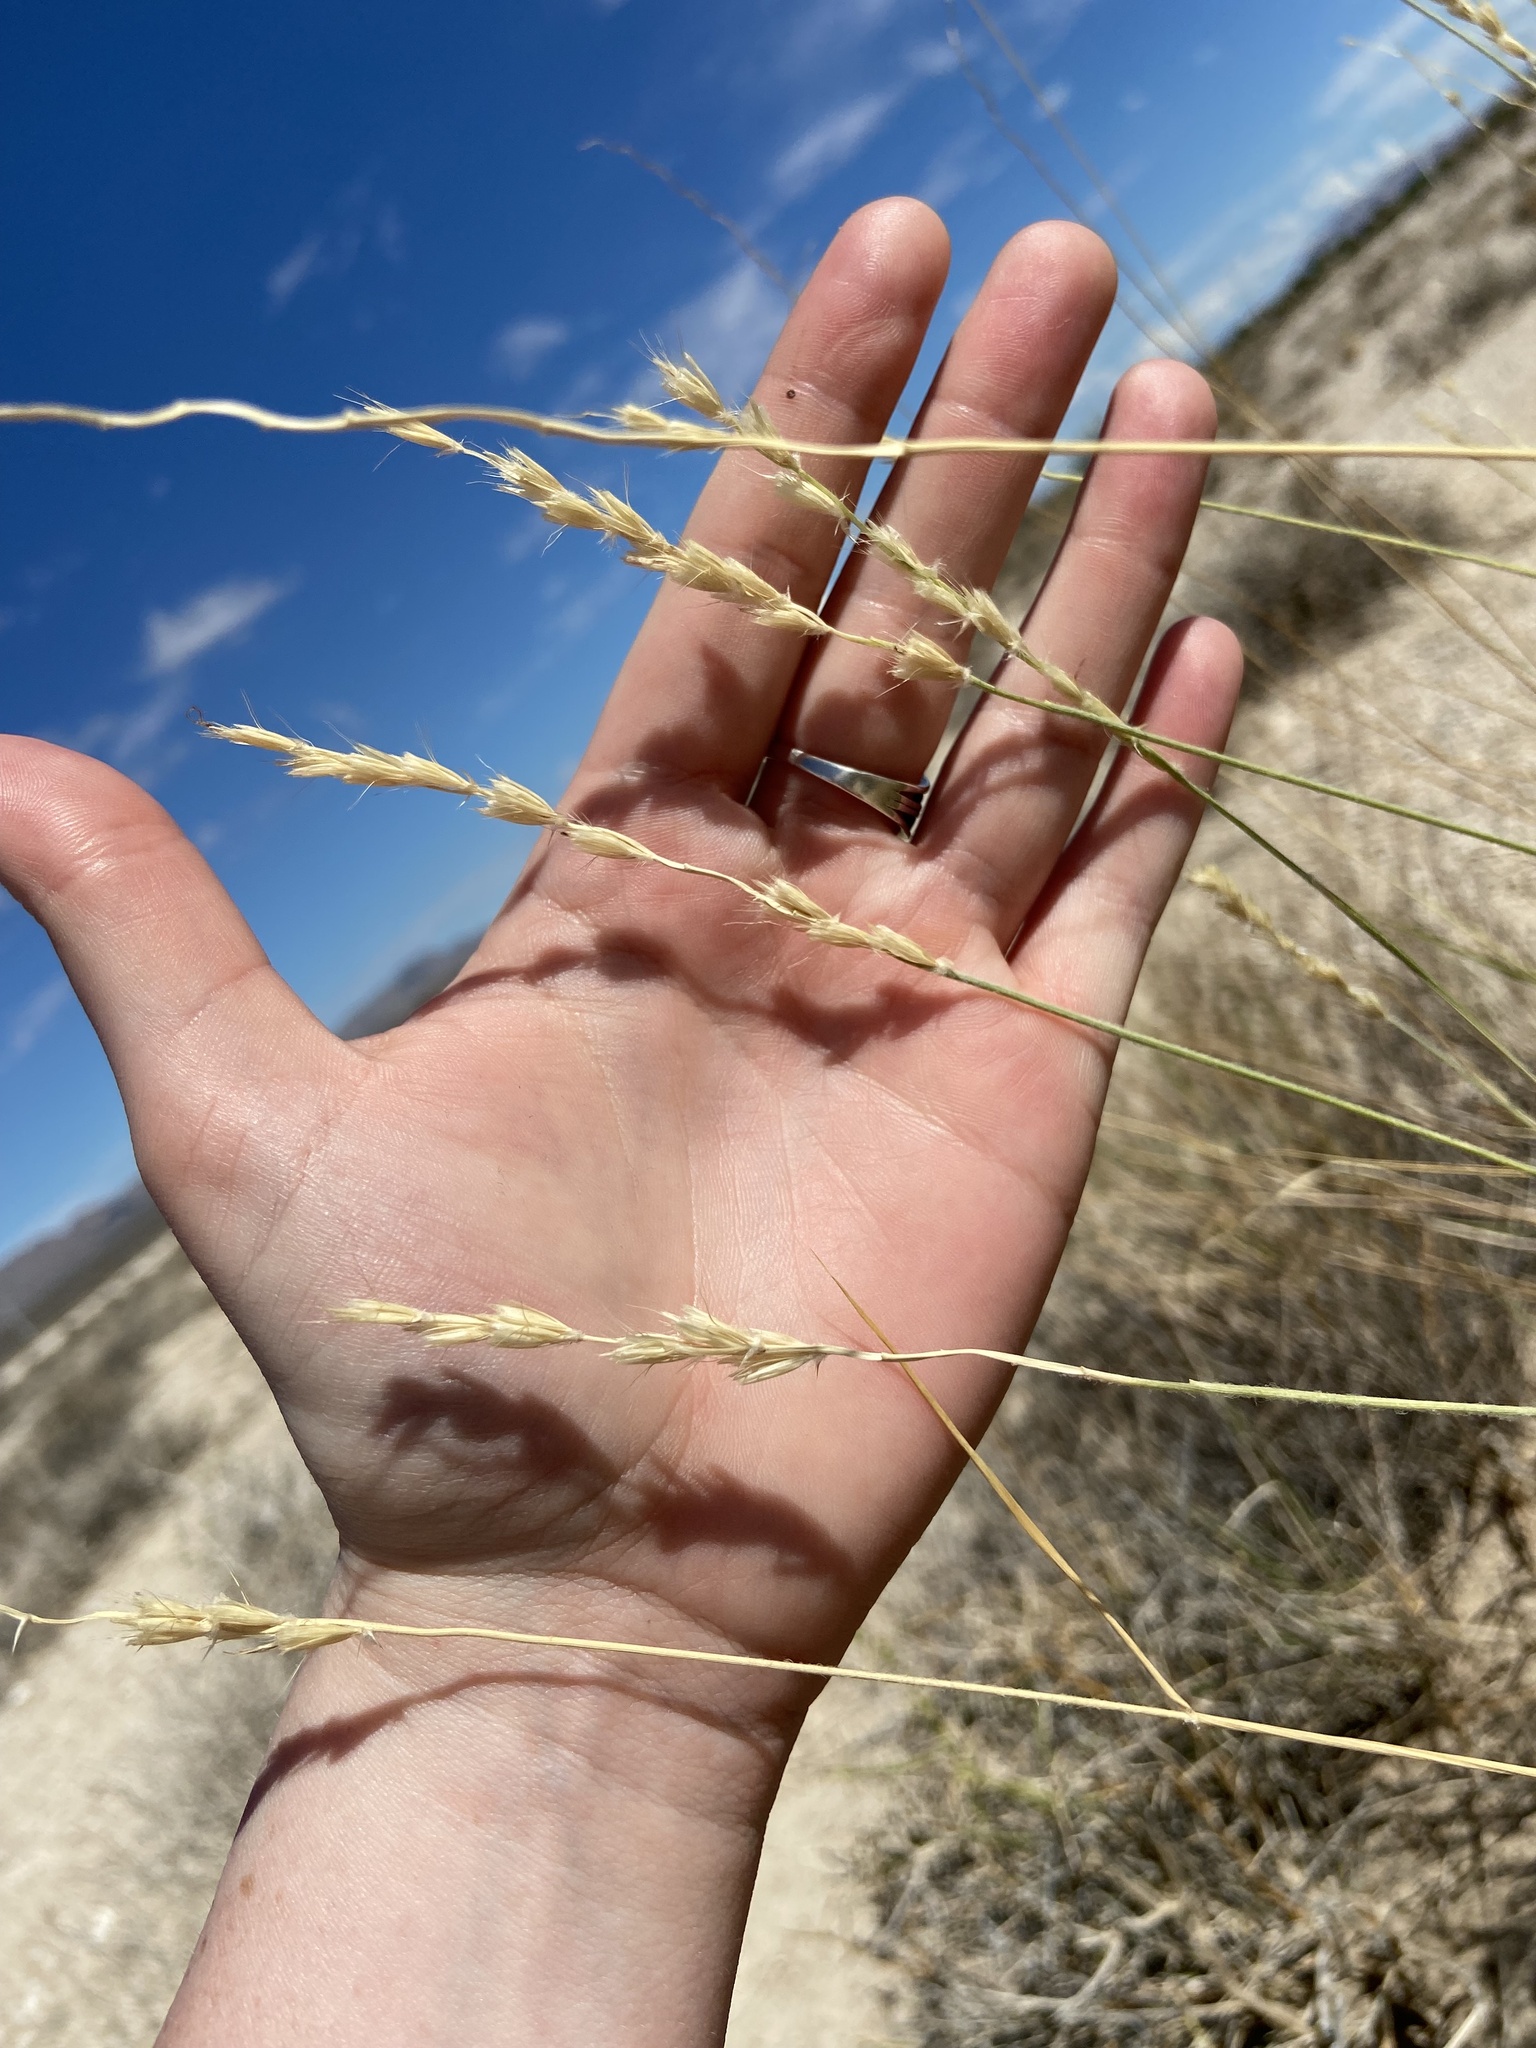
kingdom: Plantae
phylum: Tracheophyta
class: Liliopsida
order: Poales
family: Poaceae
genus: Hilaria
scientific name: Hilaria rigida
